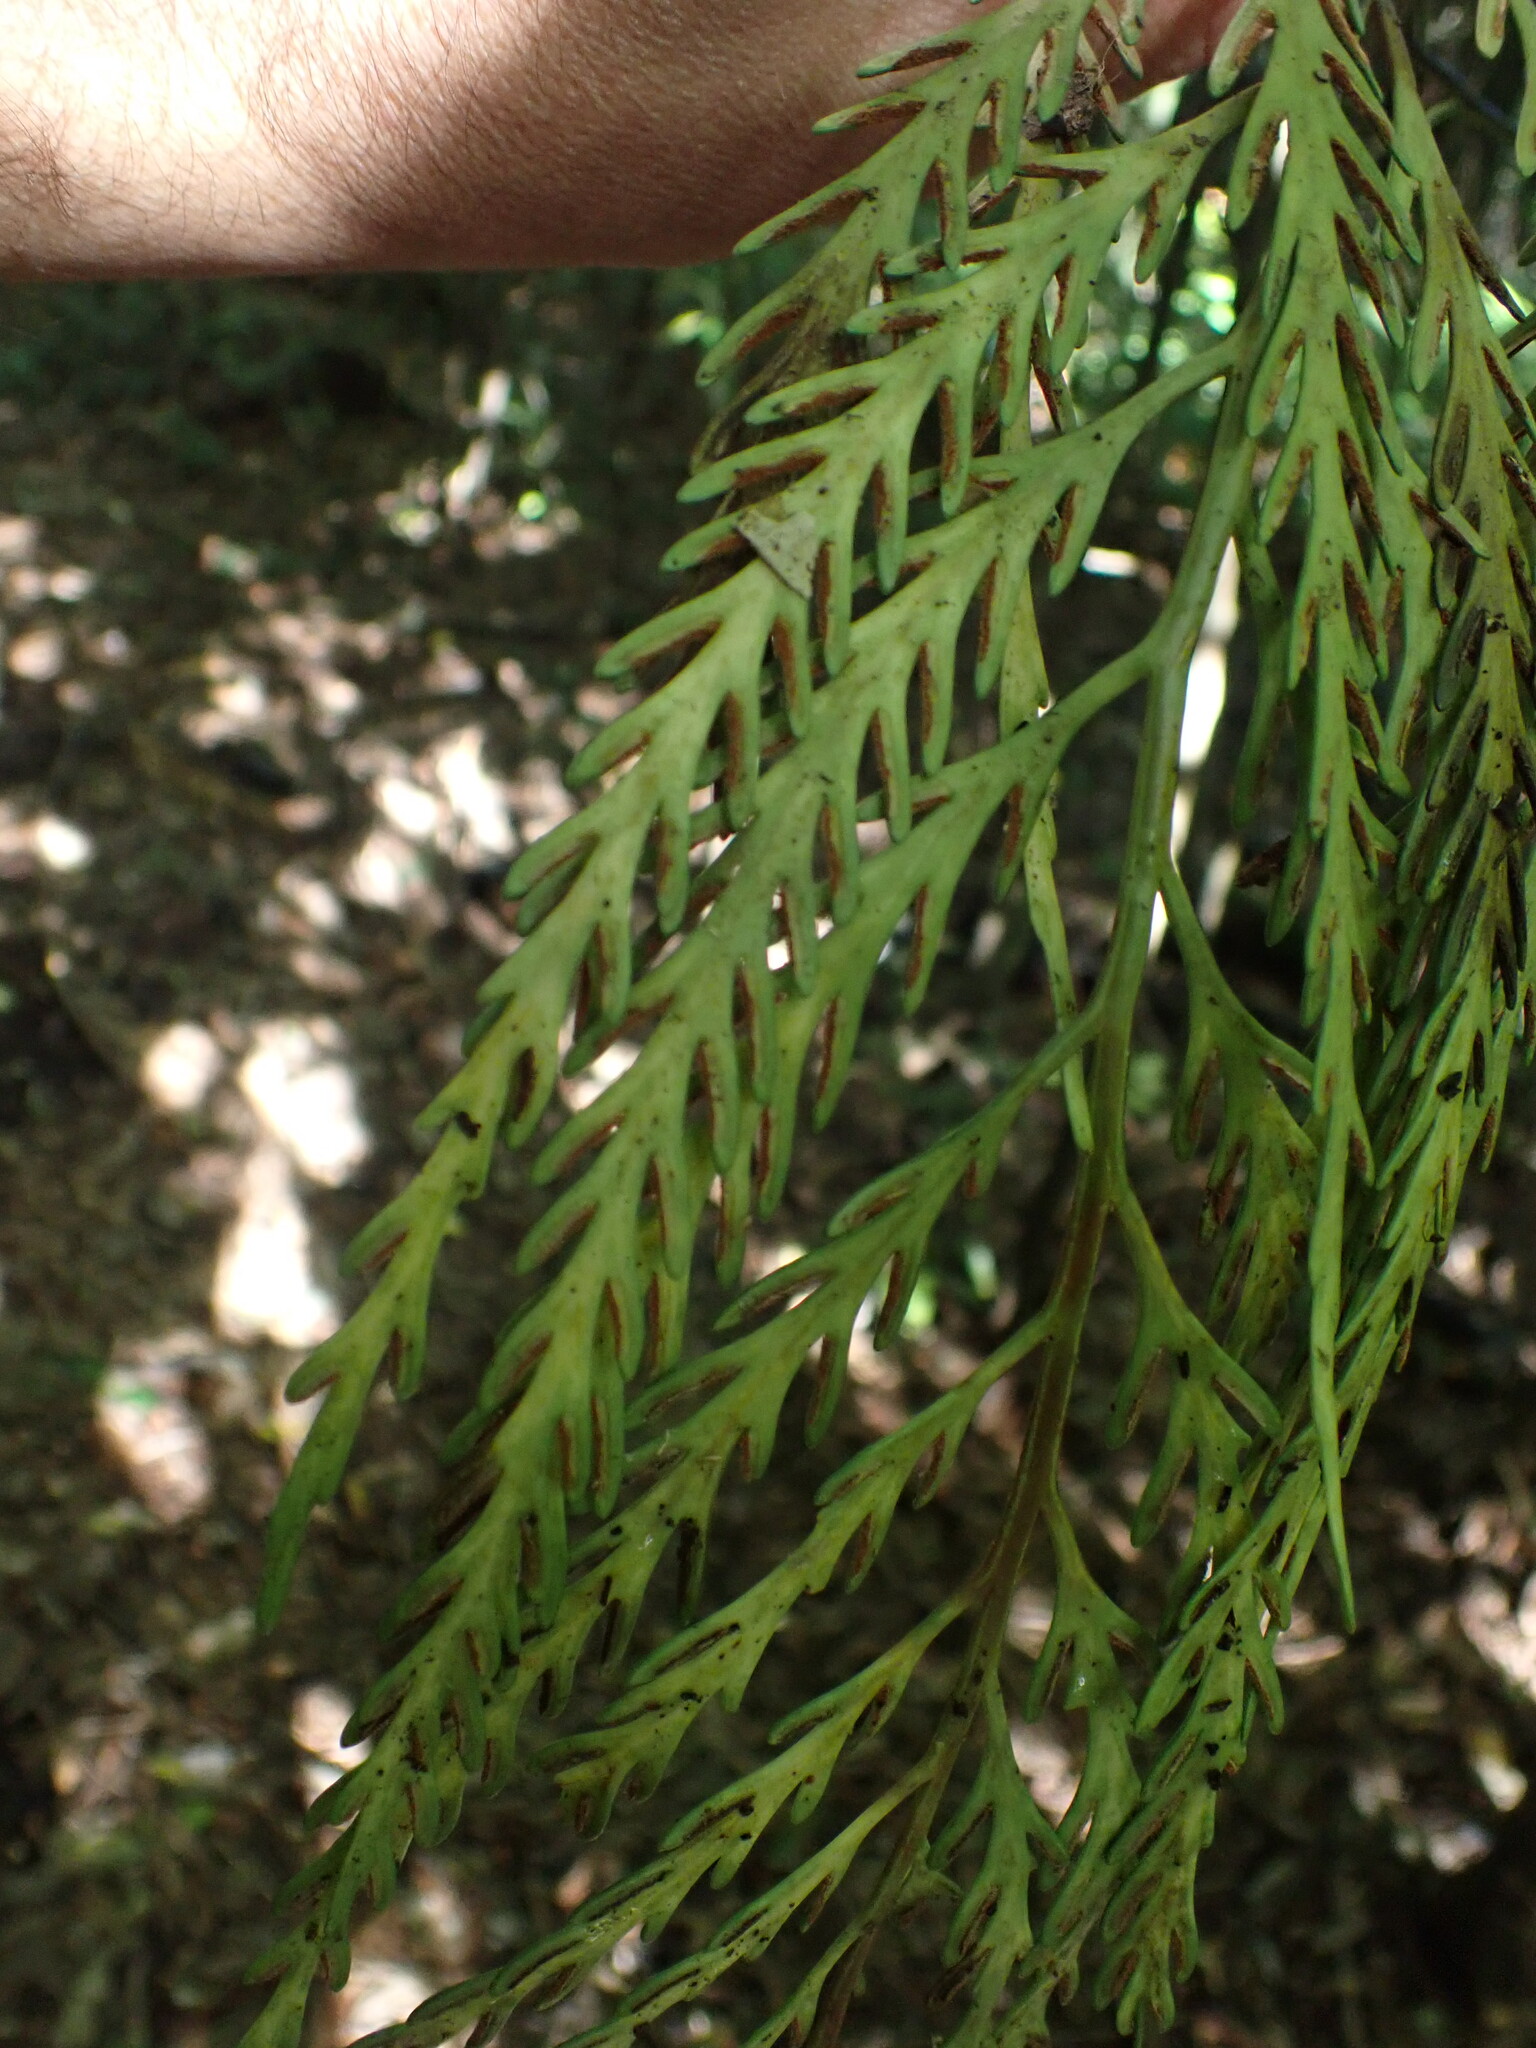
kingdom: Plantae
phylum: Tracheophyta
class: Polypodiopsida
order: Polypodiales
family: Aspleniaceae
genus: Asplenium
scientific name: Asplenium flaccidum
